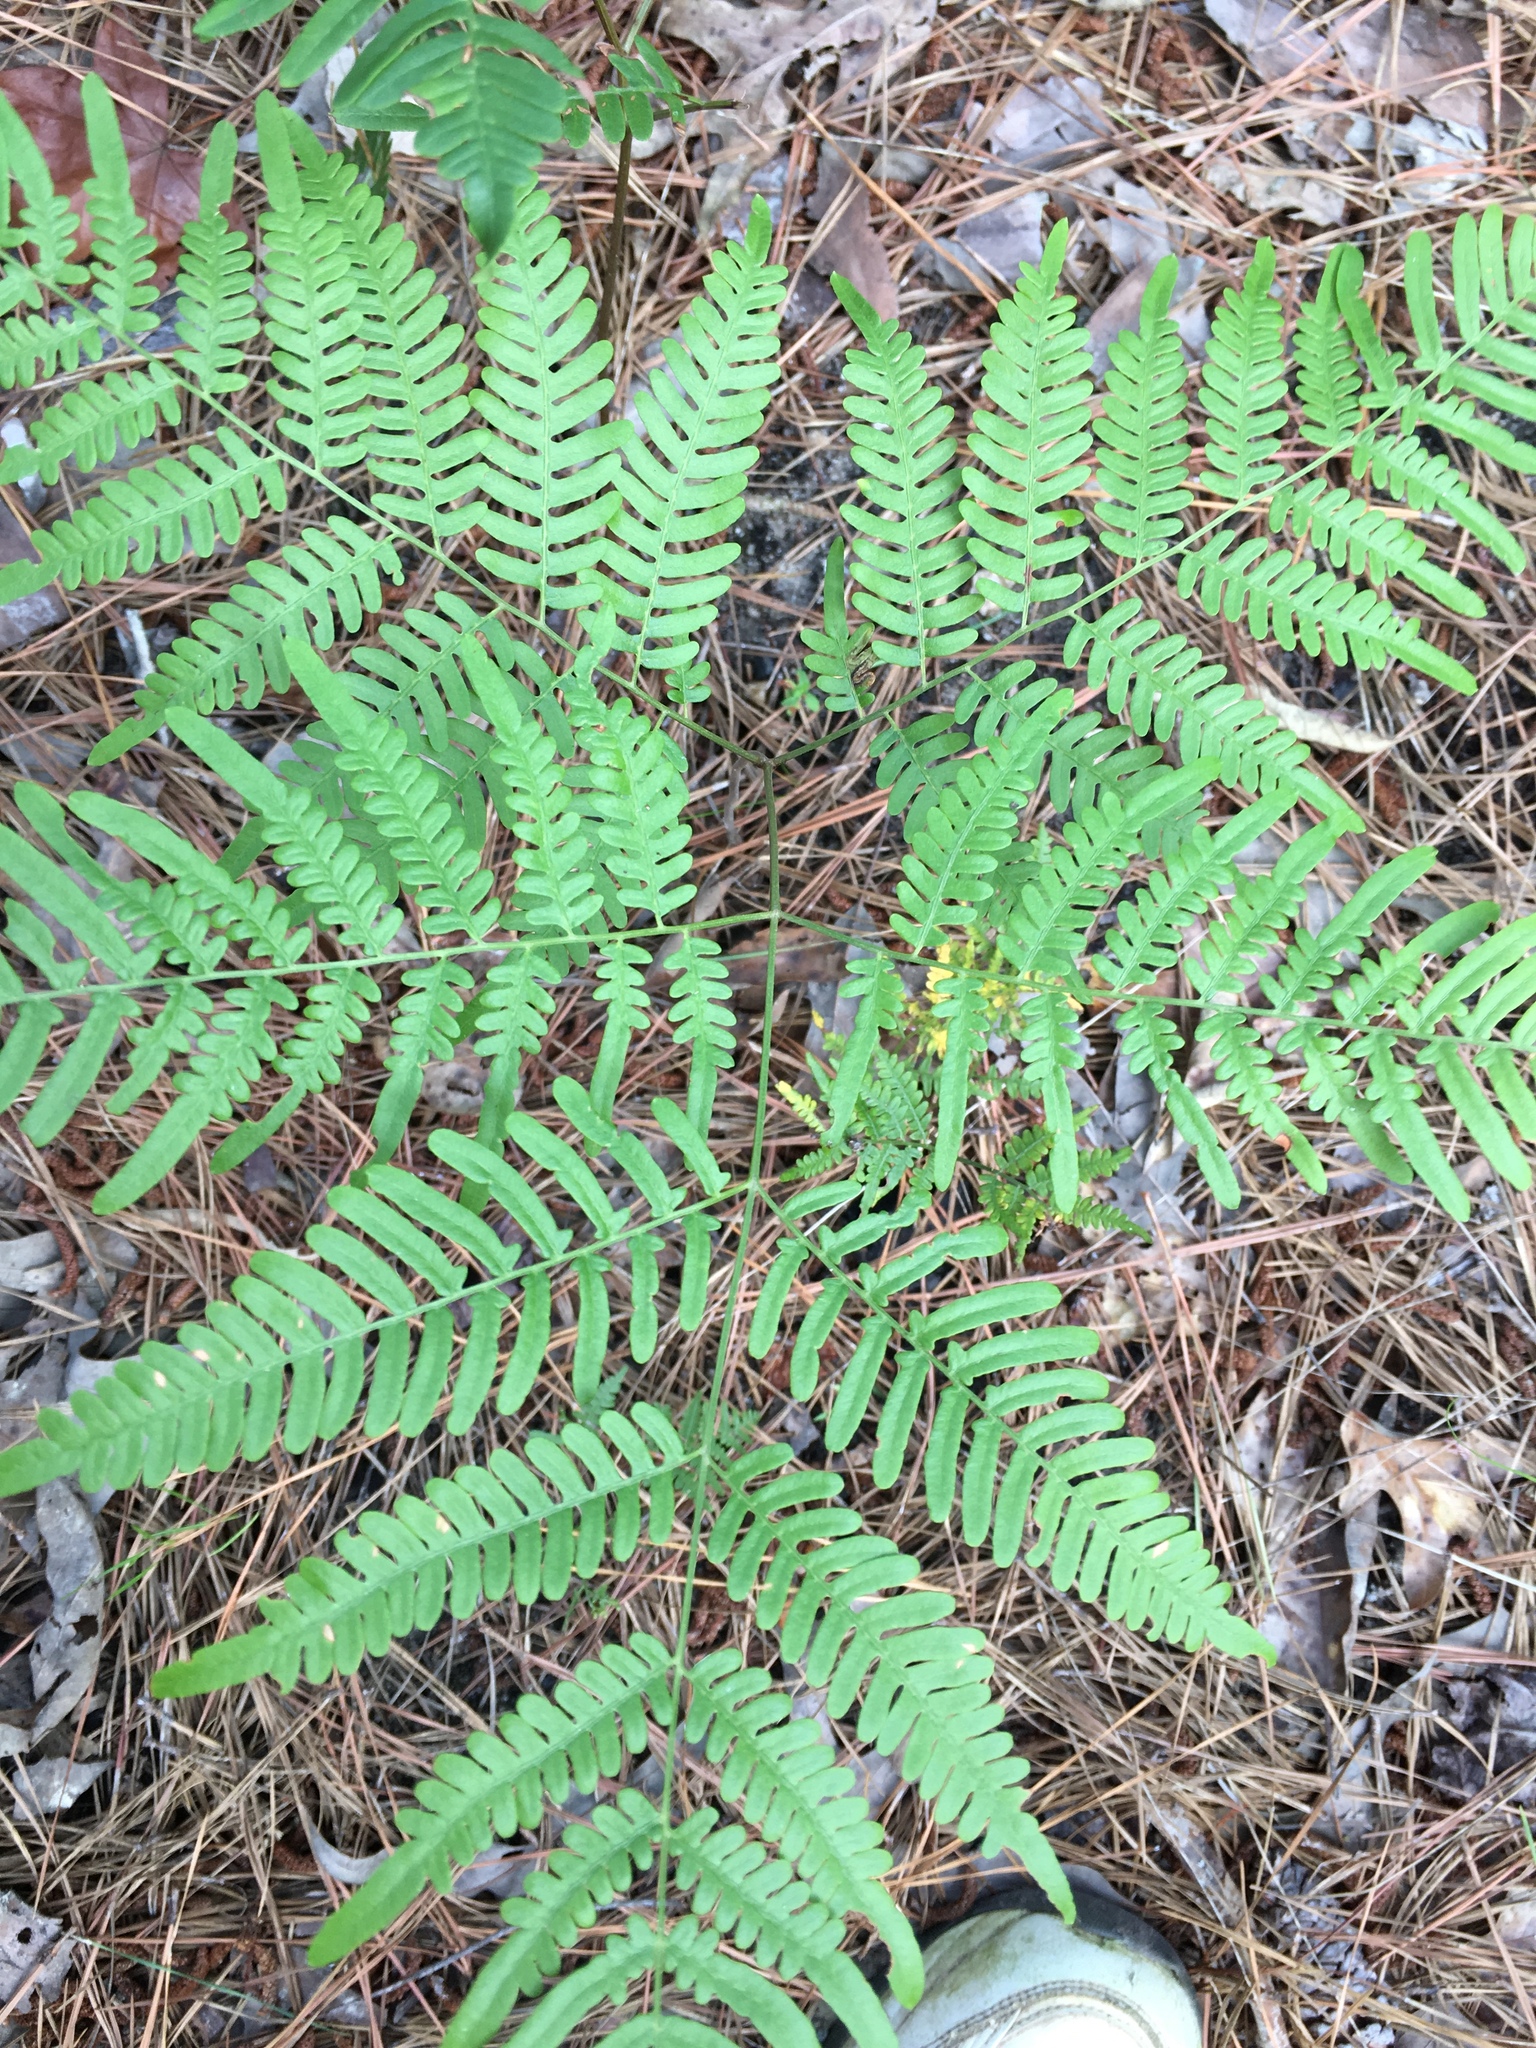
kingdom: Plantae
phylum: Tracheophyta
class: Polypodiopsida
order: Polypodiales
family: Dennstaedtiaceae
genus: Pteridium
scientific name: Pteridium aquilinum
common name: Bracken
